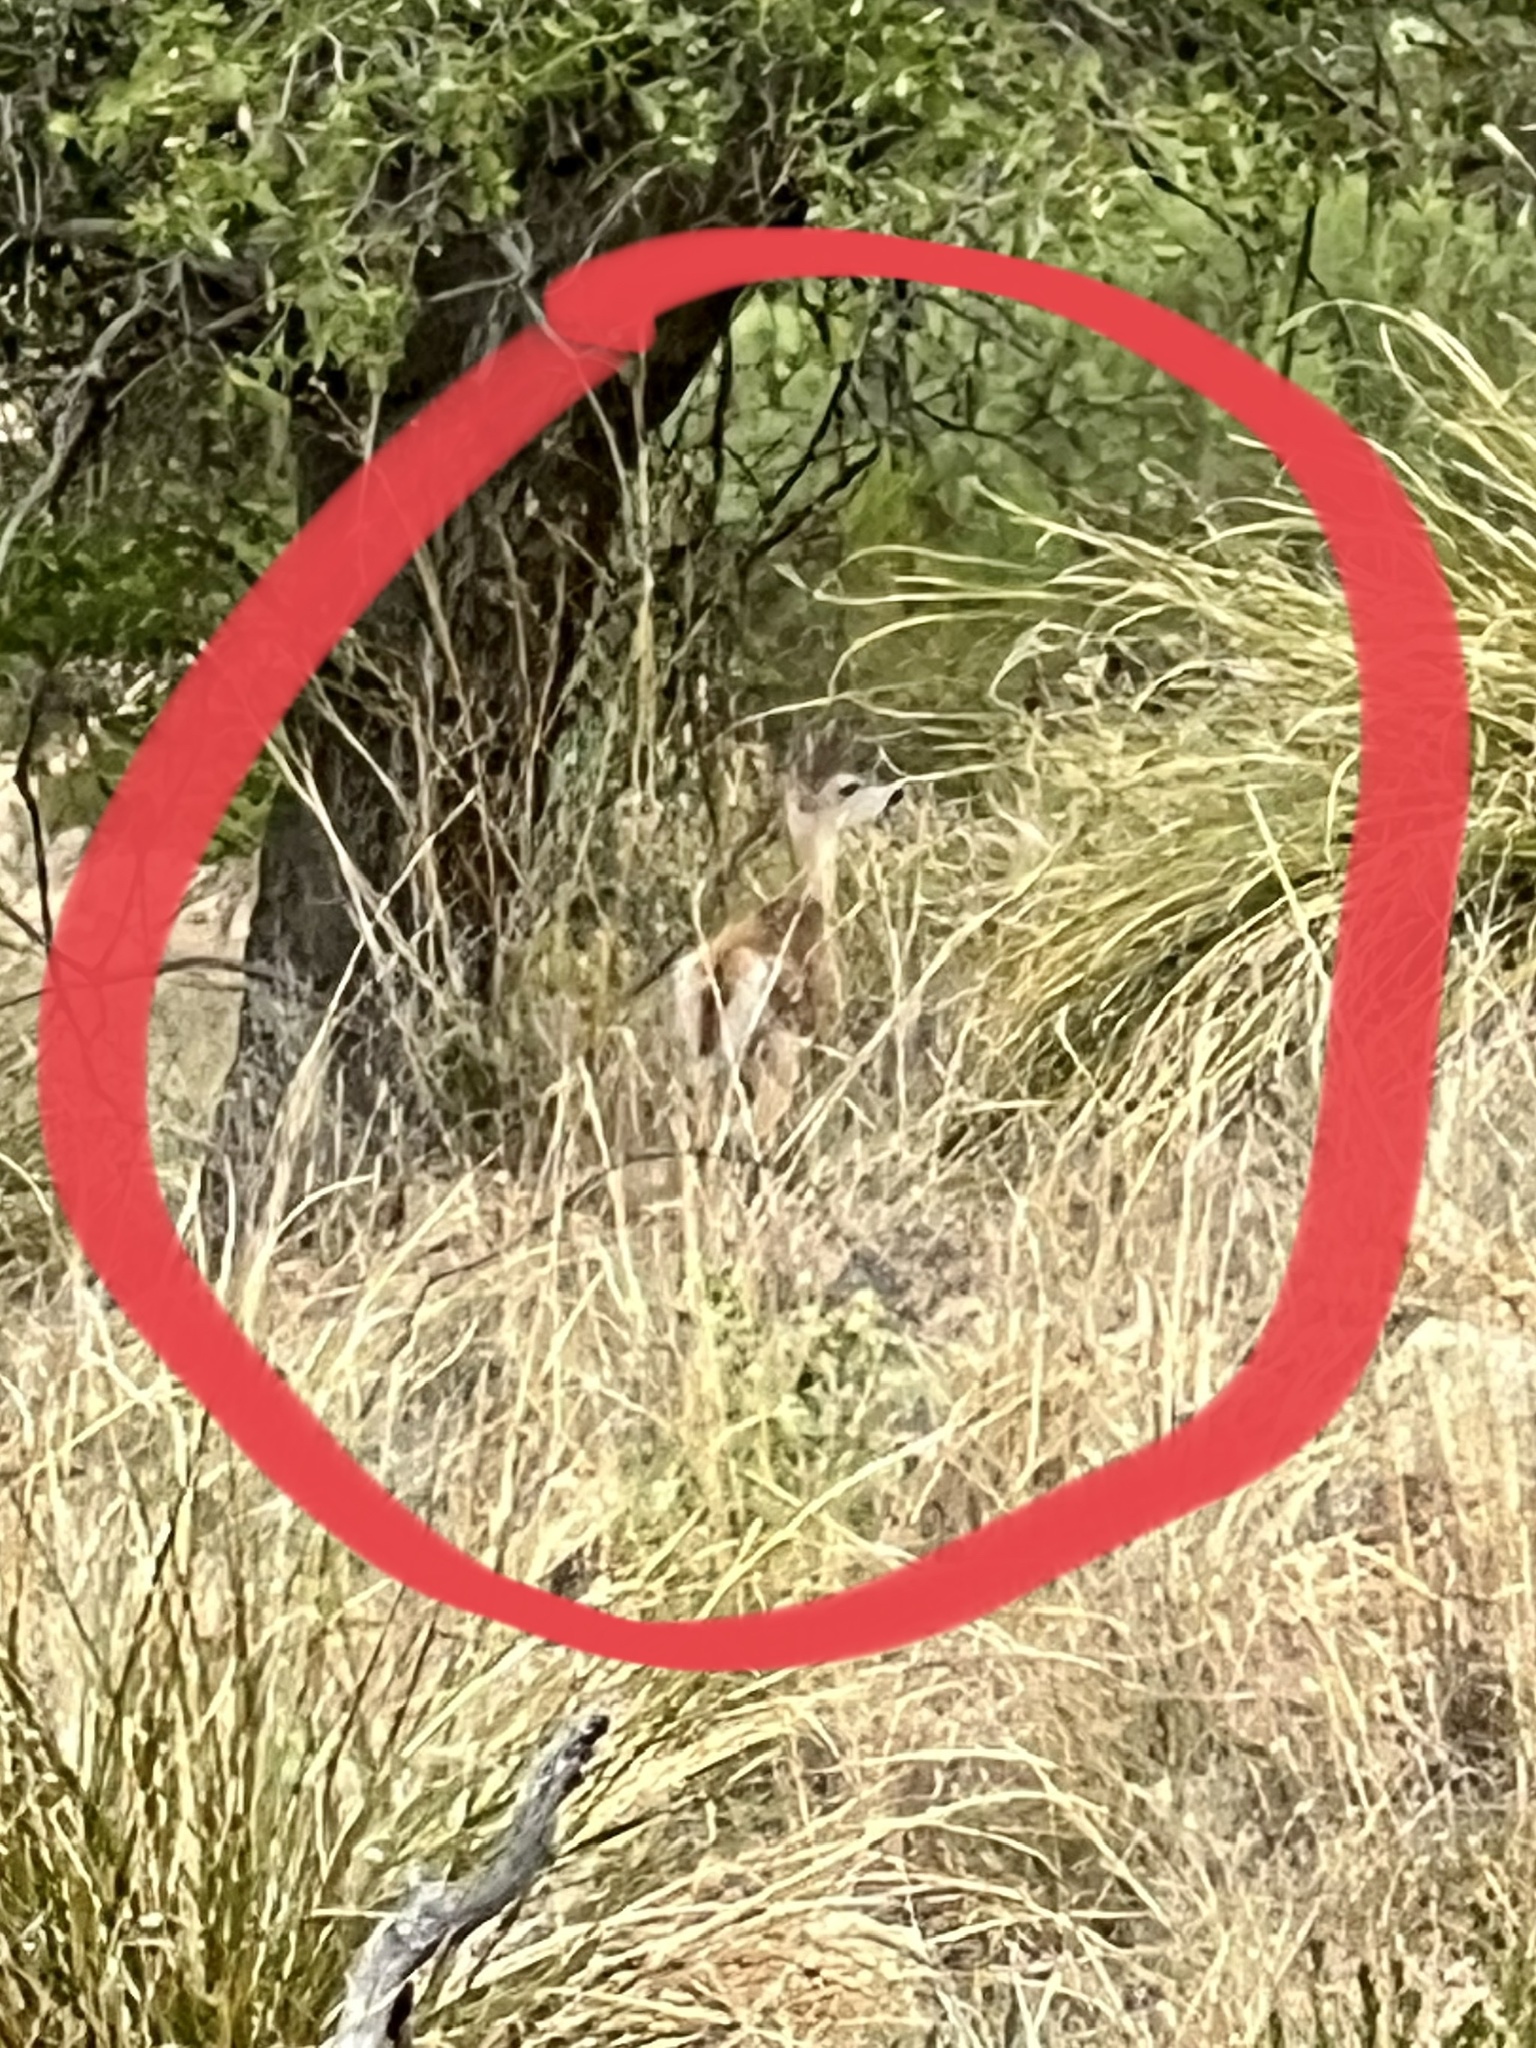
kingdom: Animalia
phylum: Chordata
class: Mammalia
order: Artiodactyla
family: Cervidae
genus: Odocoileus
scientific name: Odocoileus virginianus
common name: White-tailed deer
